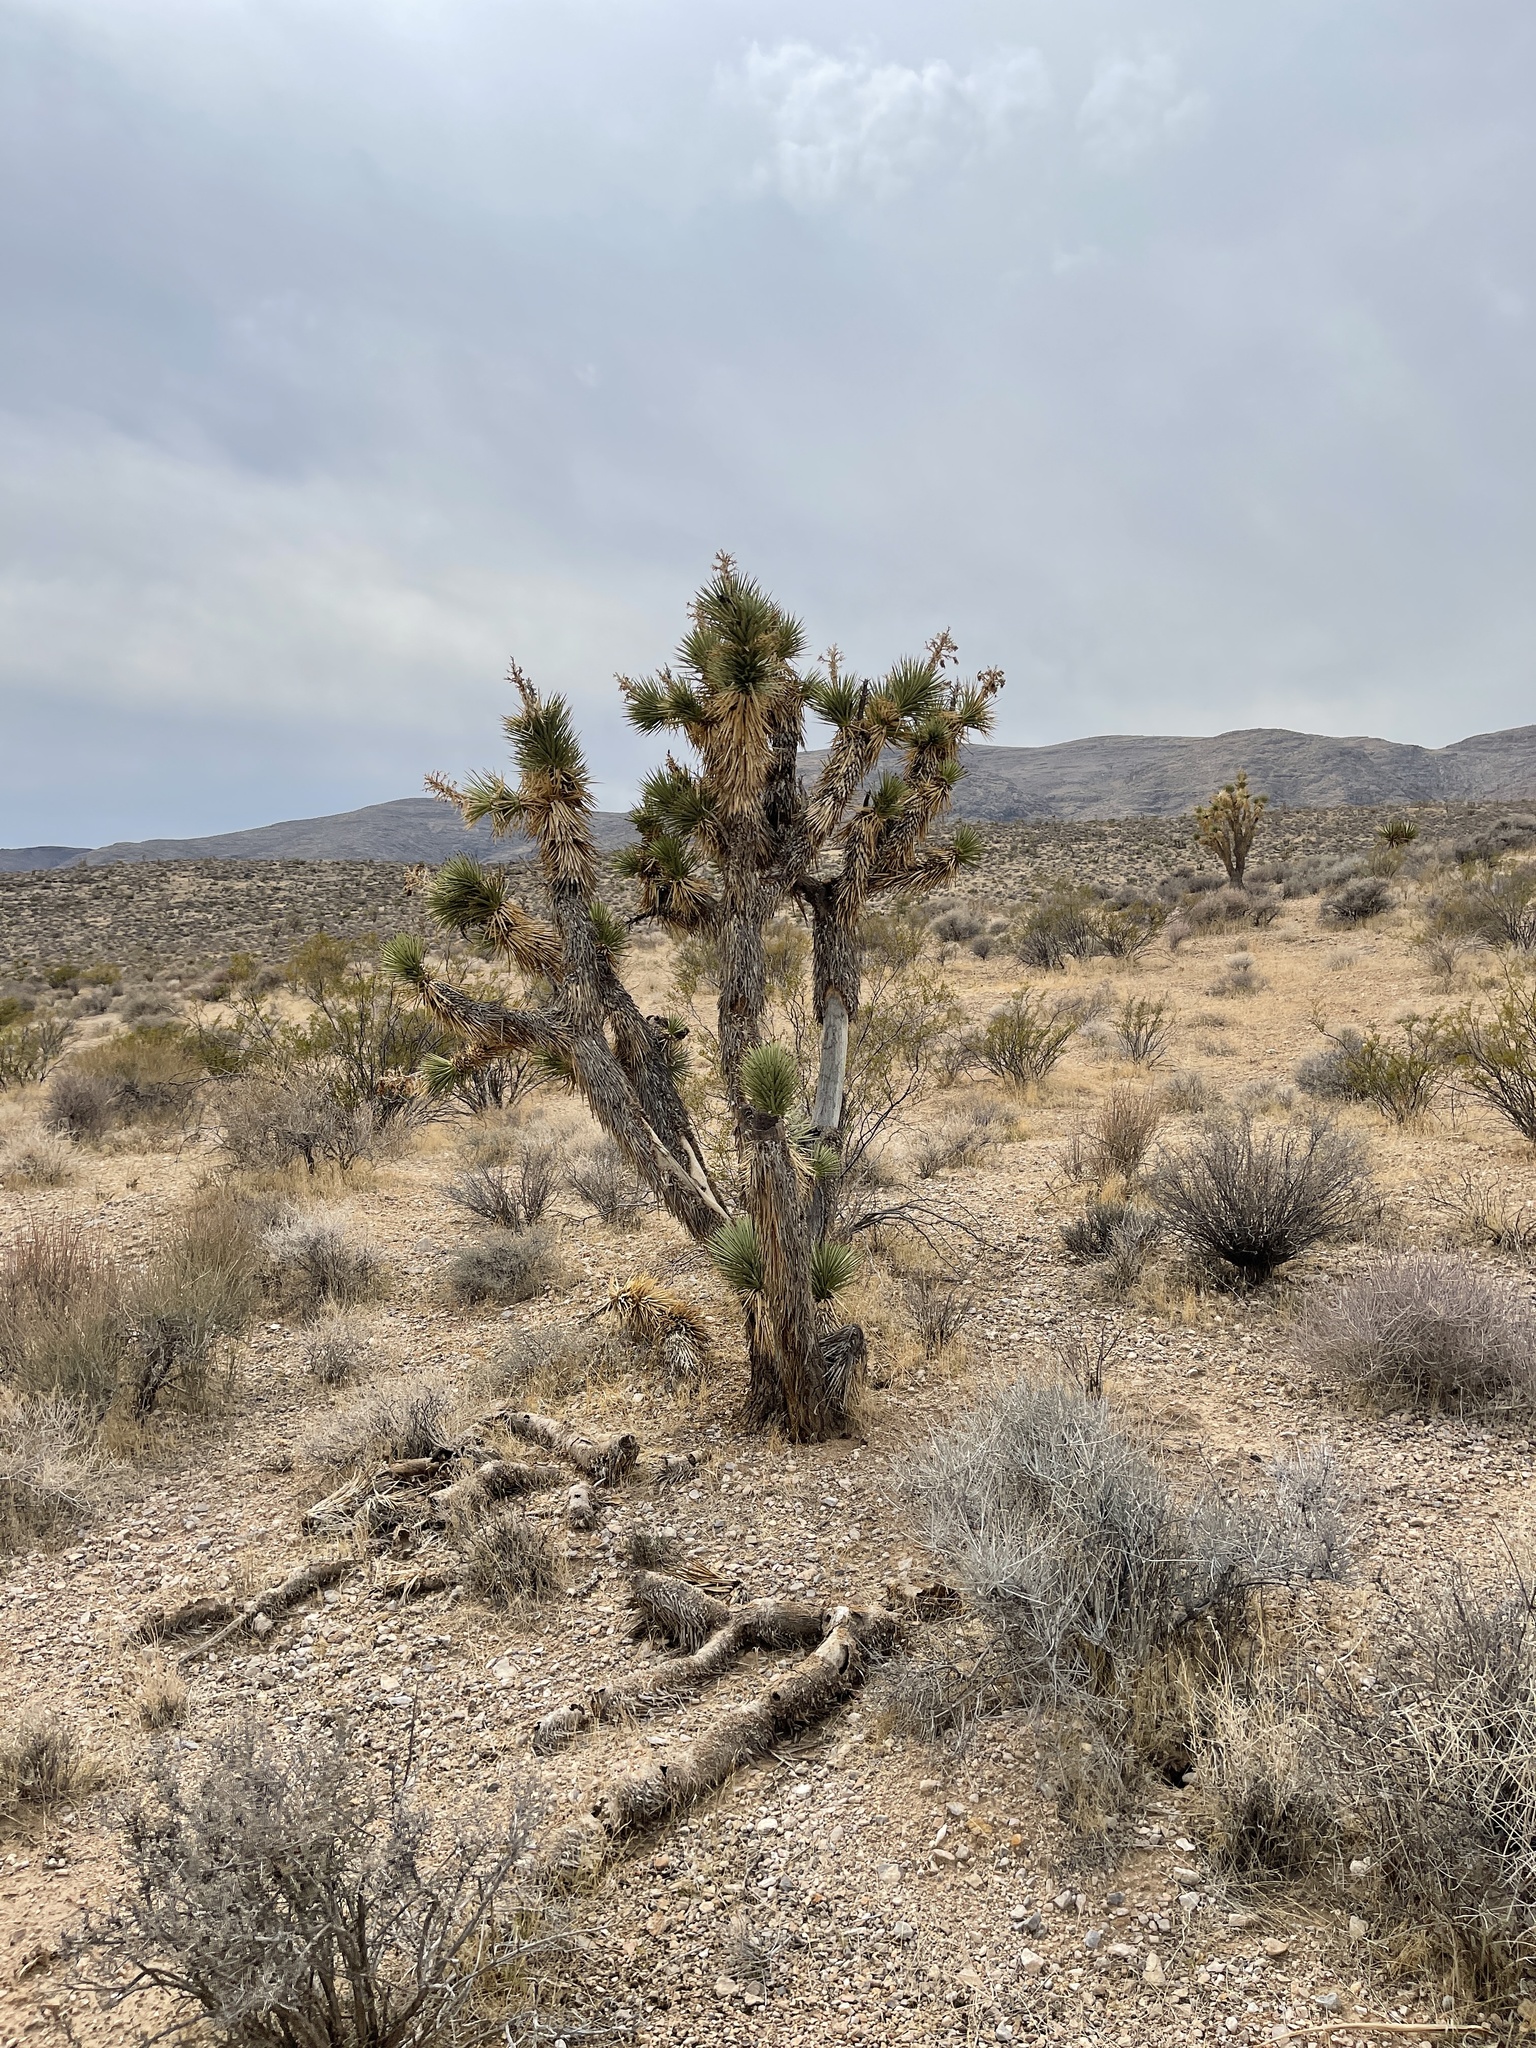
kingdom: Plantae
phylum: Tracheophyta
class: Liliopsida
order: Asparagales
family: Asparagaceae
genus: Yucca
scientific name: Yucca brevifolia
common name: Joshua tree
